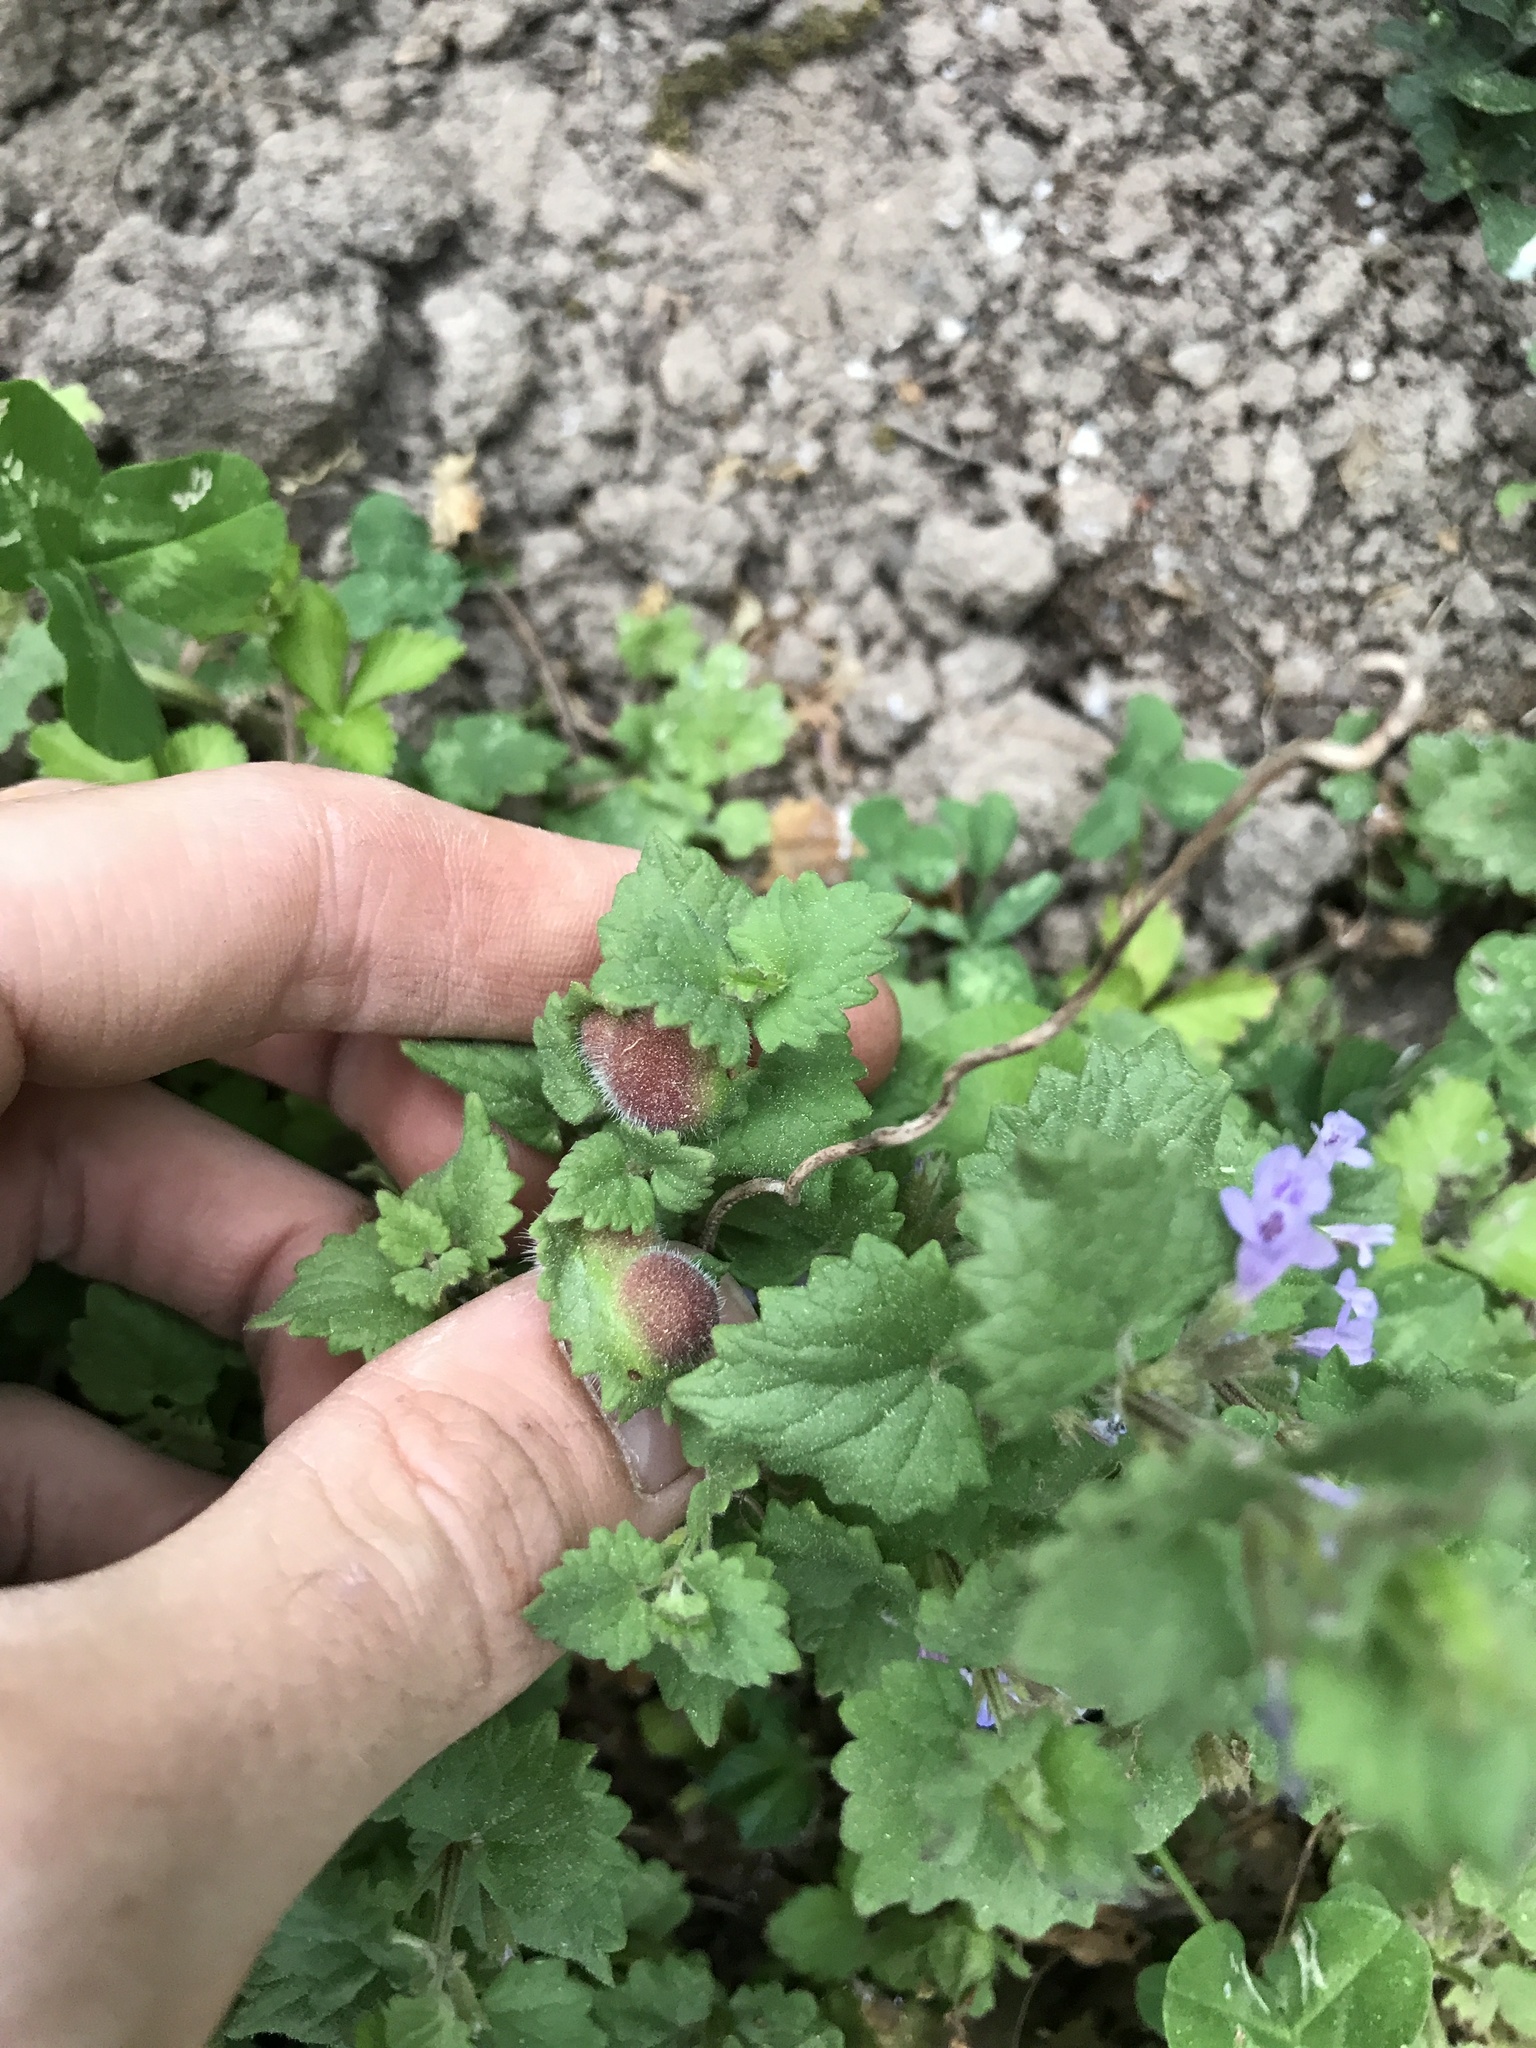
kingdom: Animalia
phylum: Arthropoda
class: Insecta
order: Hymenoptera
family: Cynipidae
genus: Liposthenes
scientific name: Liposthenes glechomae
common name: Gall wasp
